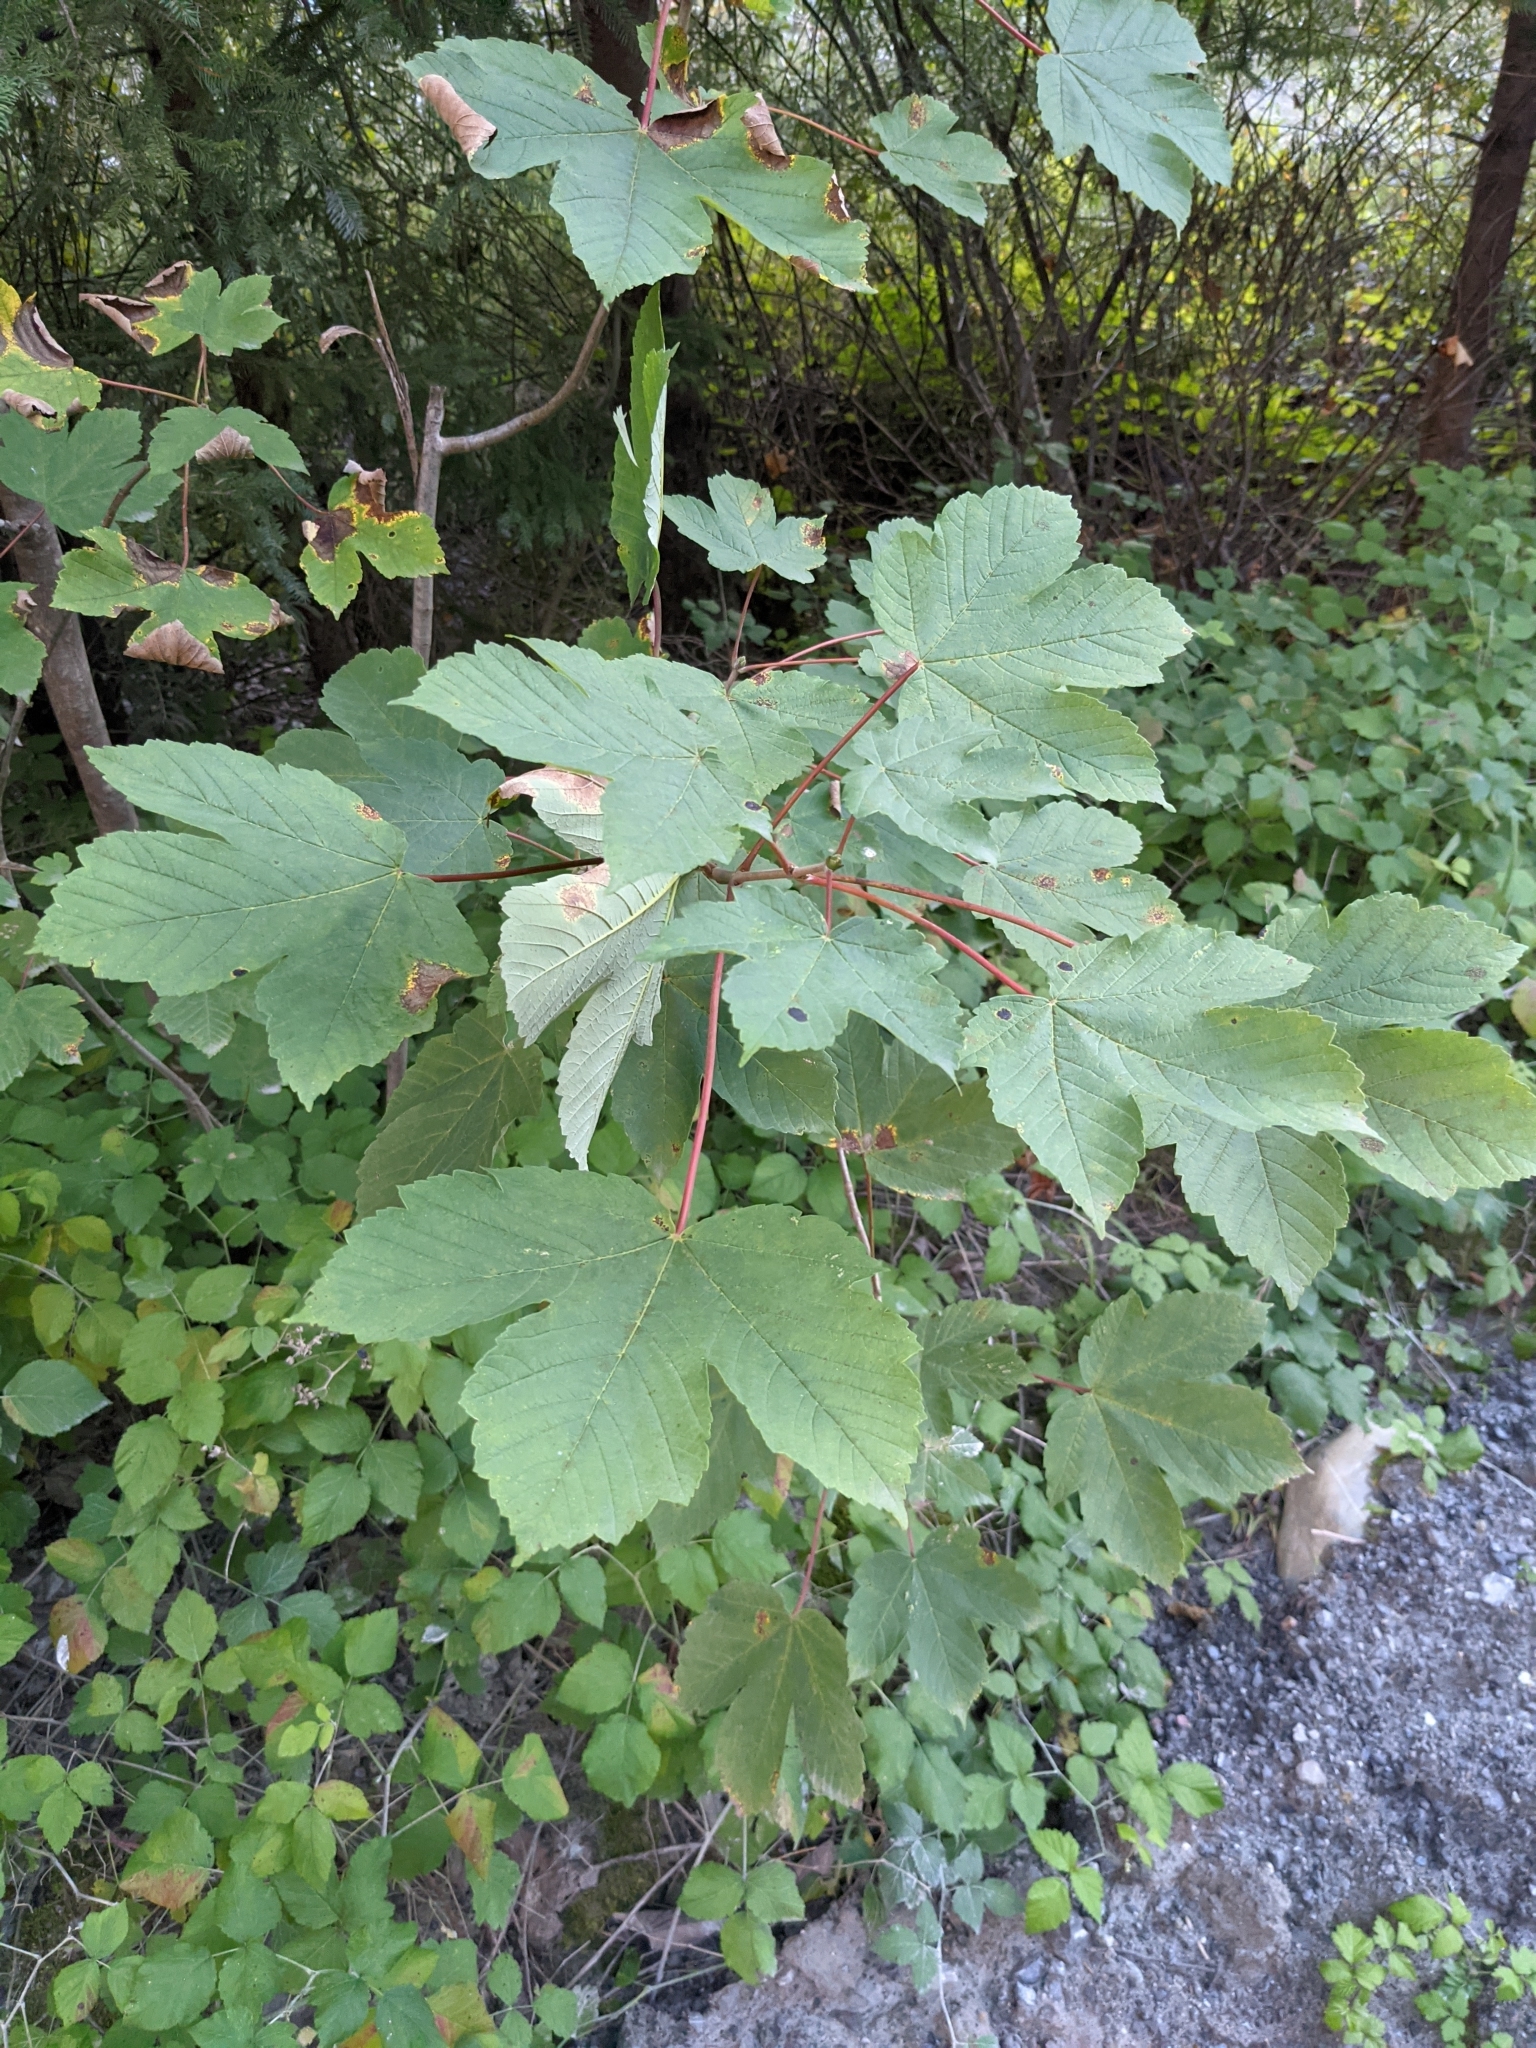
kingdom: Plantae
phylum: Tracheophyta
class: Magnoliopsida
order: Sapindales
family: Sapindaceae
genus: Acer
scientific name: Acer pseudoplatanus
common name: Sycamore
